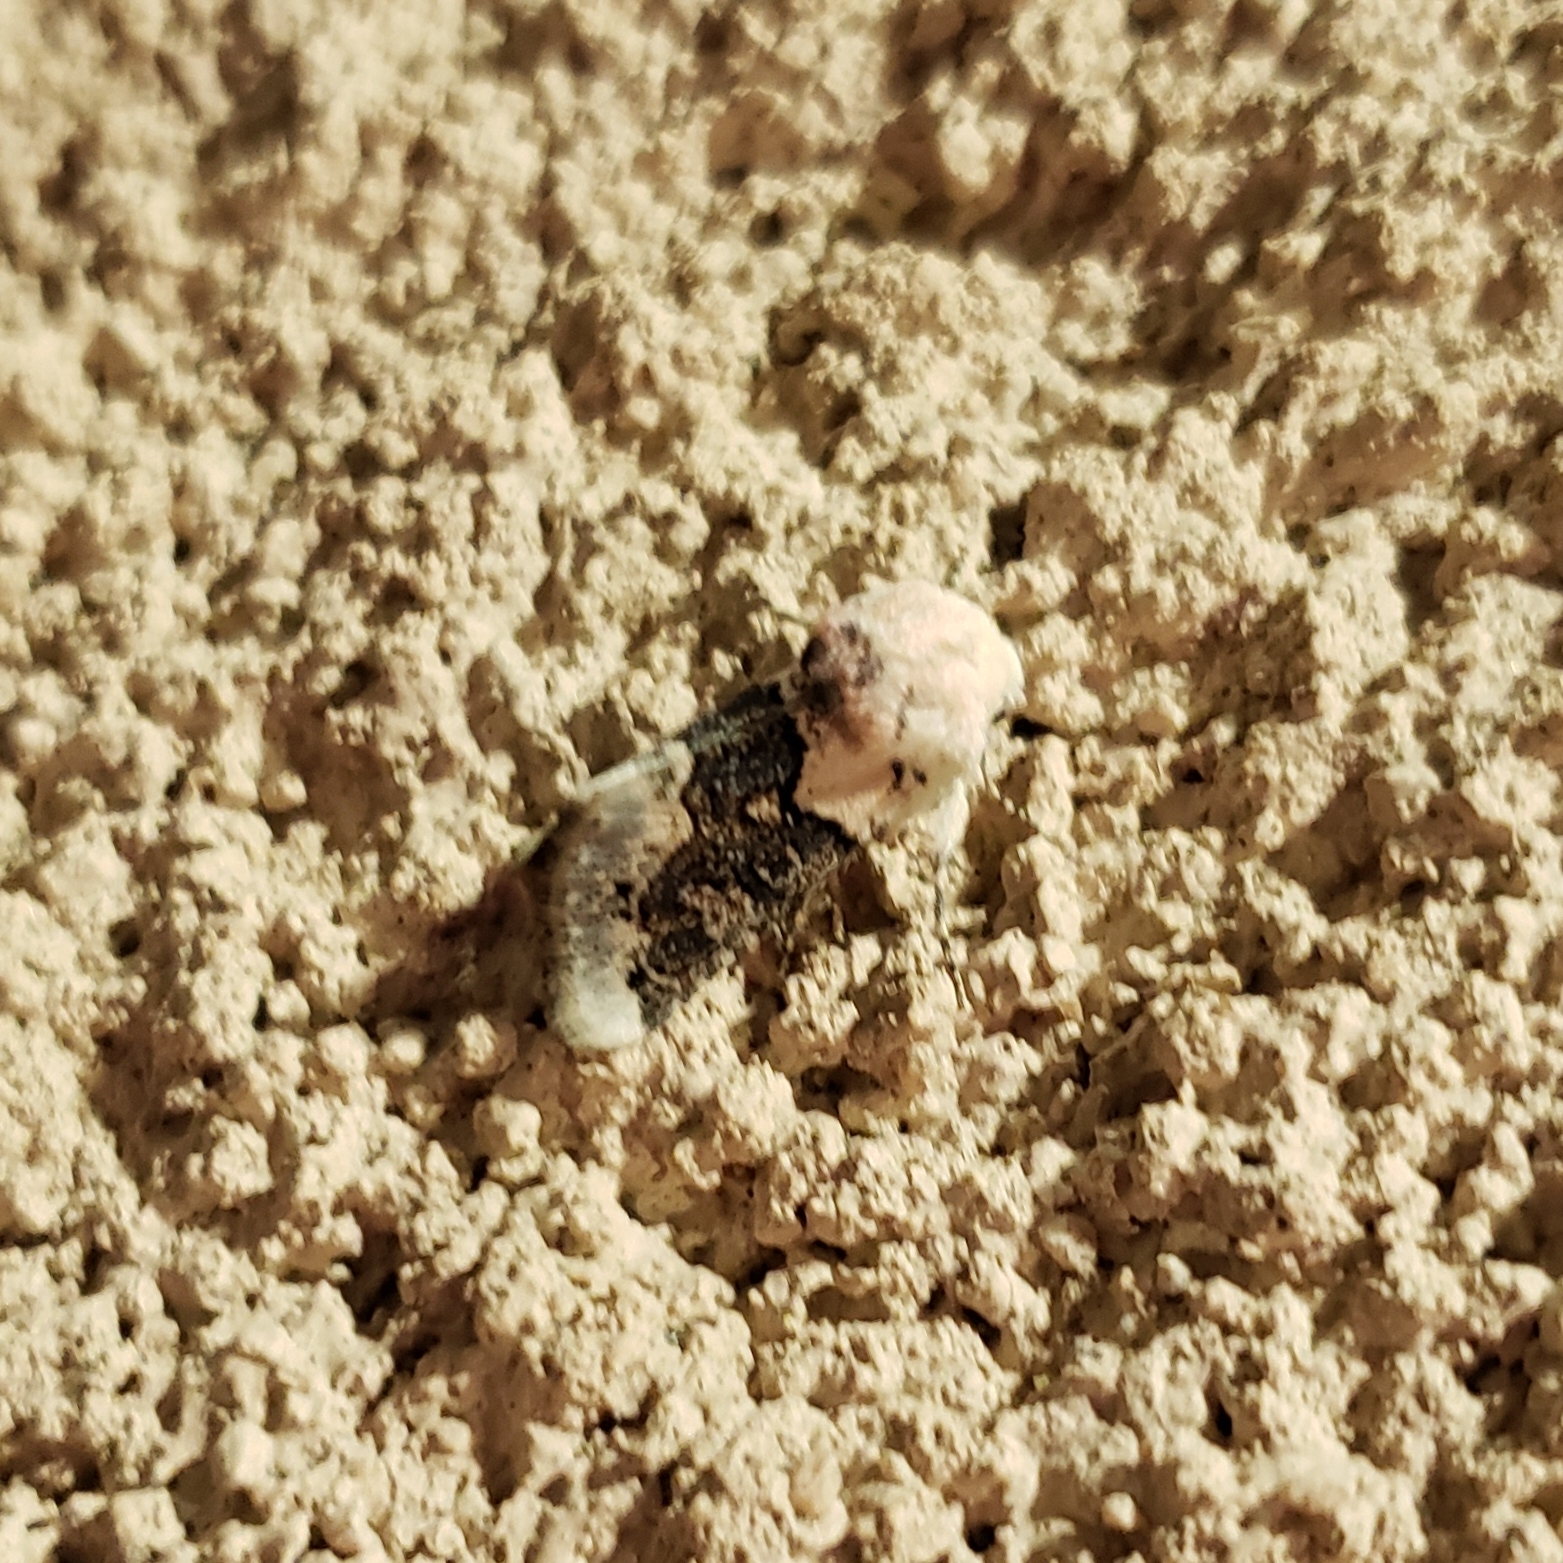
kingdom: Animalia
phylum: Arthropoda
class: Insecta
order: Lepidoptera
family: Noctuidae
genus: Triocnemis
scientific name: Triocnemis saporis
